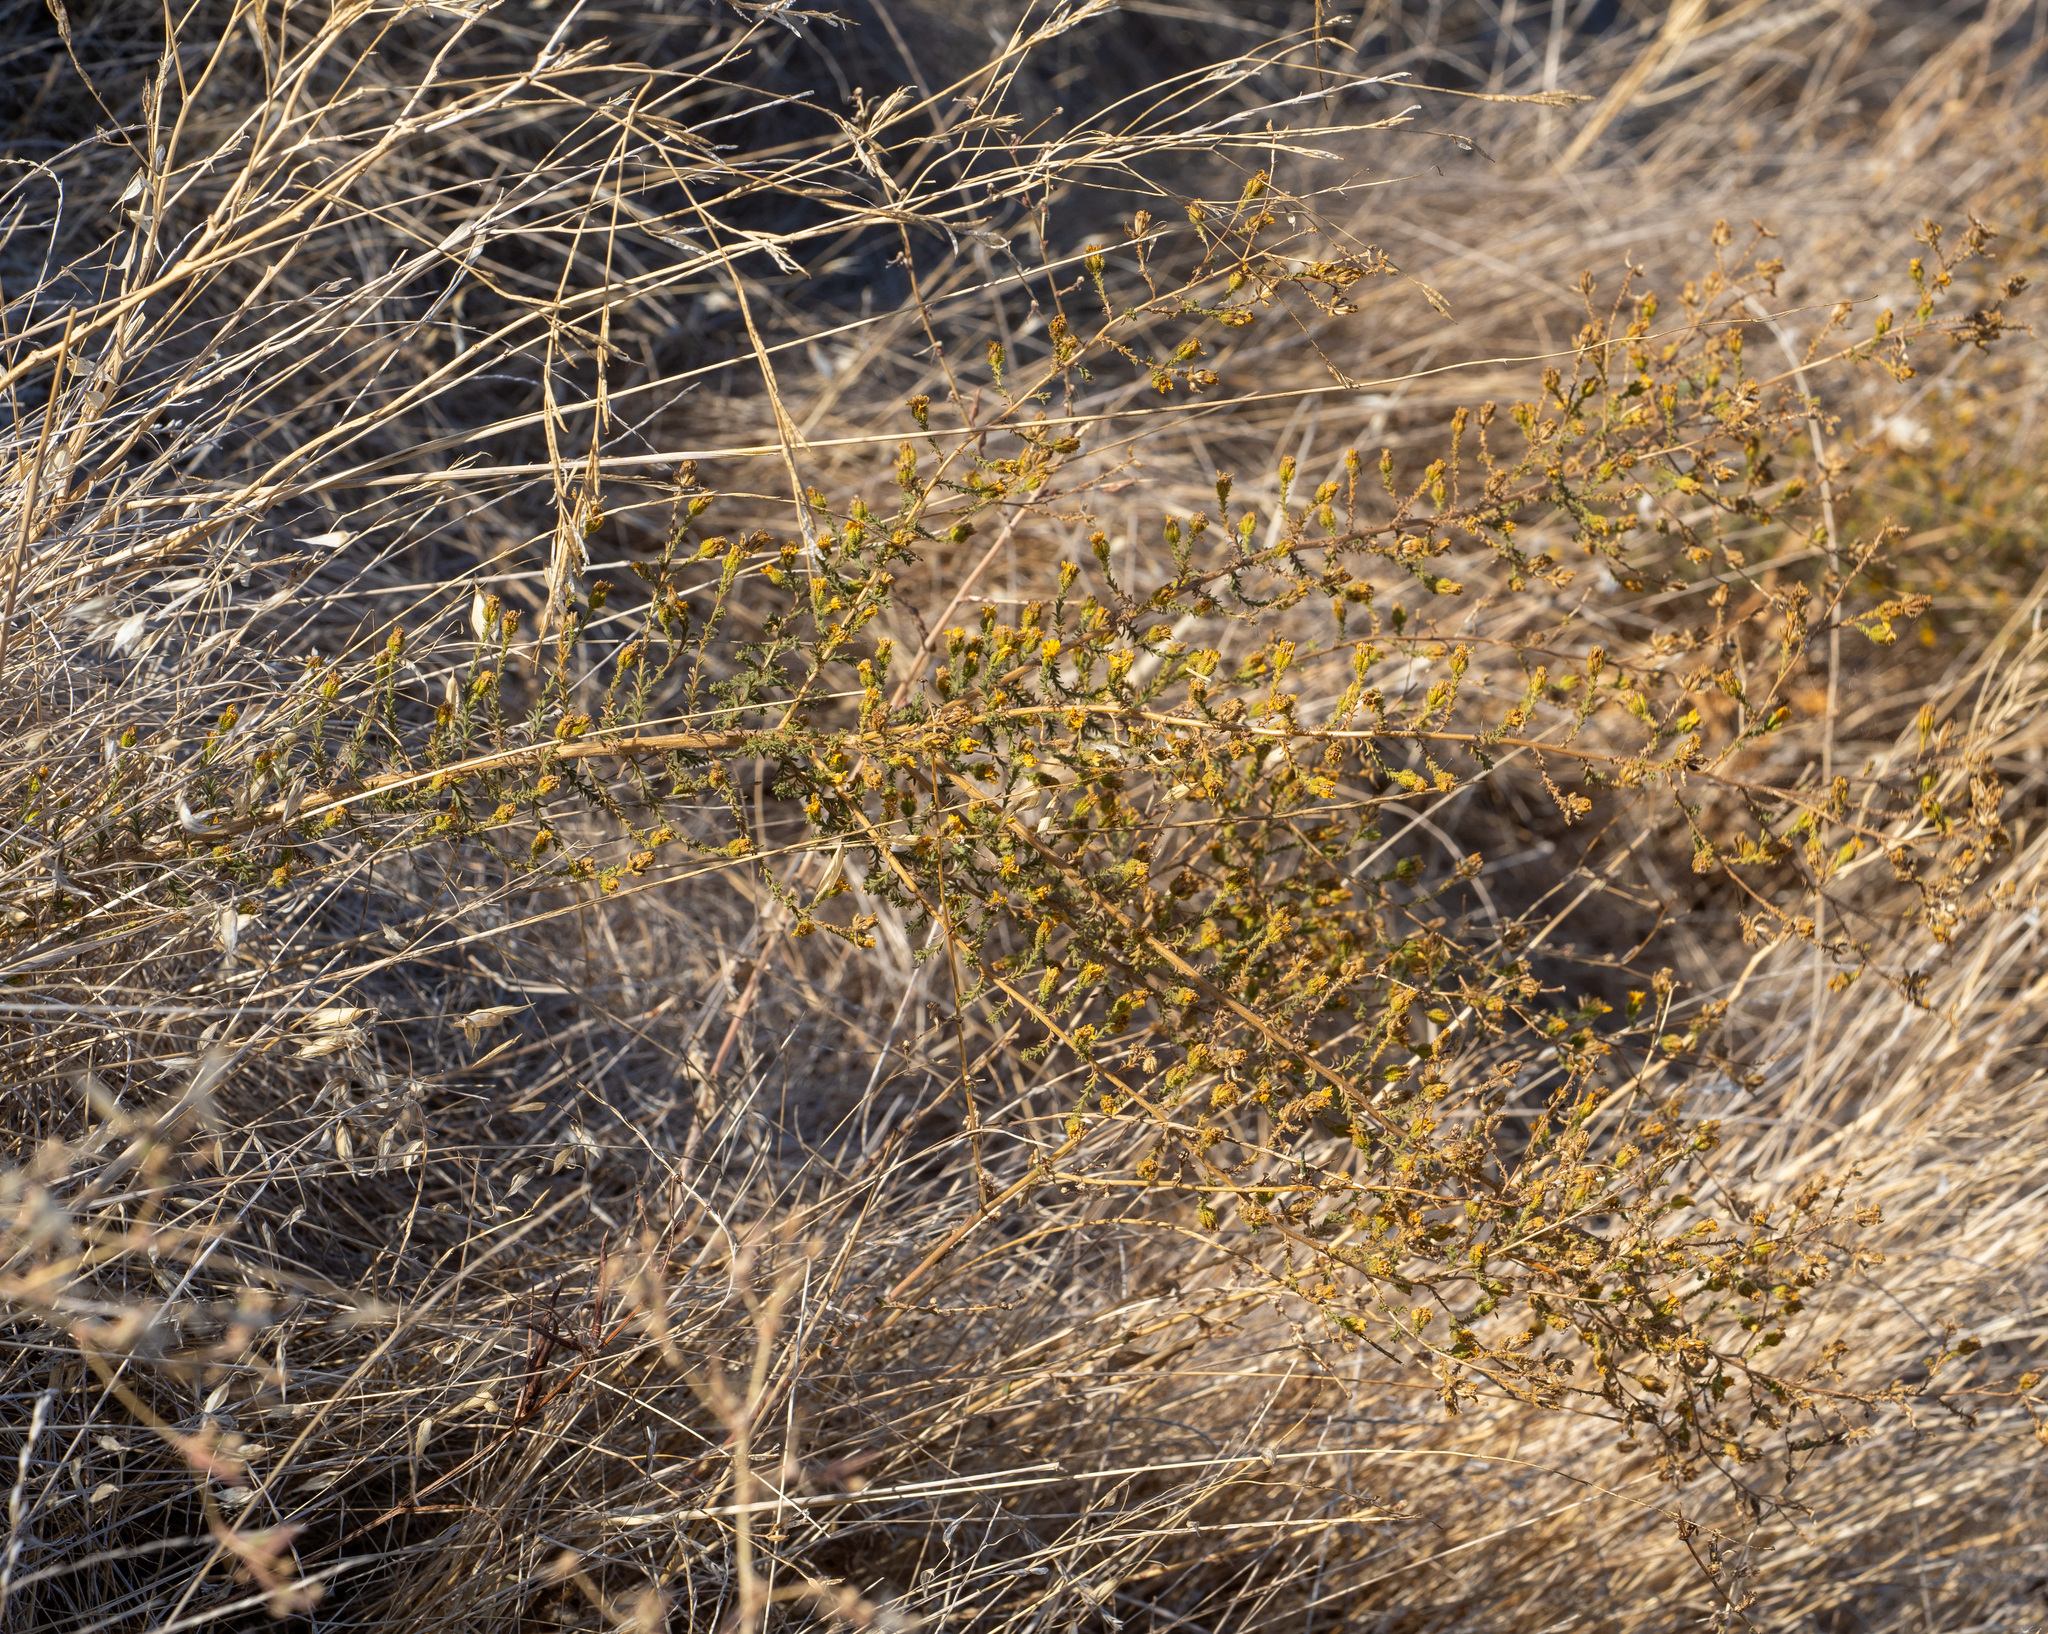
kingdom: Plantae
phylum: Tracheophyta
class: Magnoliopsida
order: Asterales
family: Asteraceae
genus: Holocarpha
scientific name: Holocarpha heermannii
